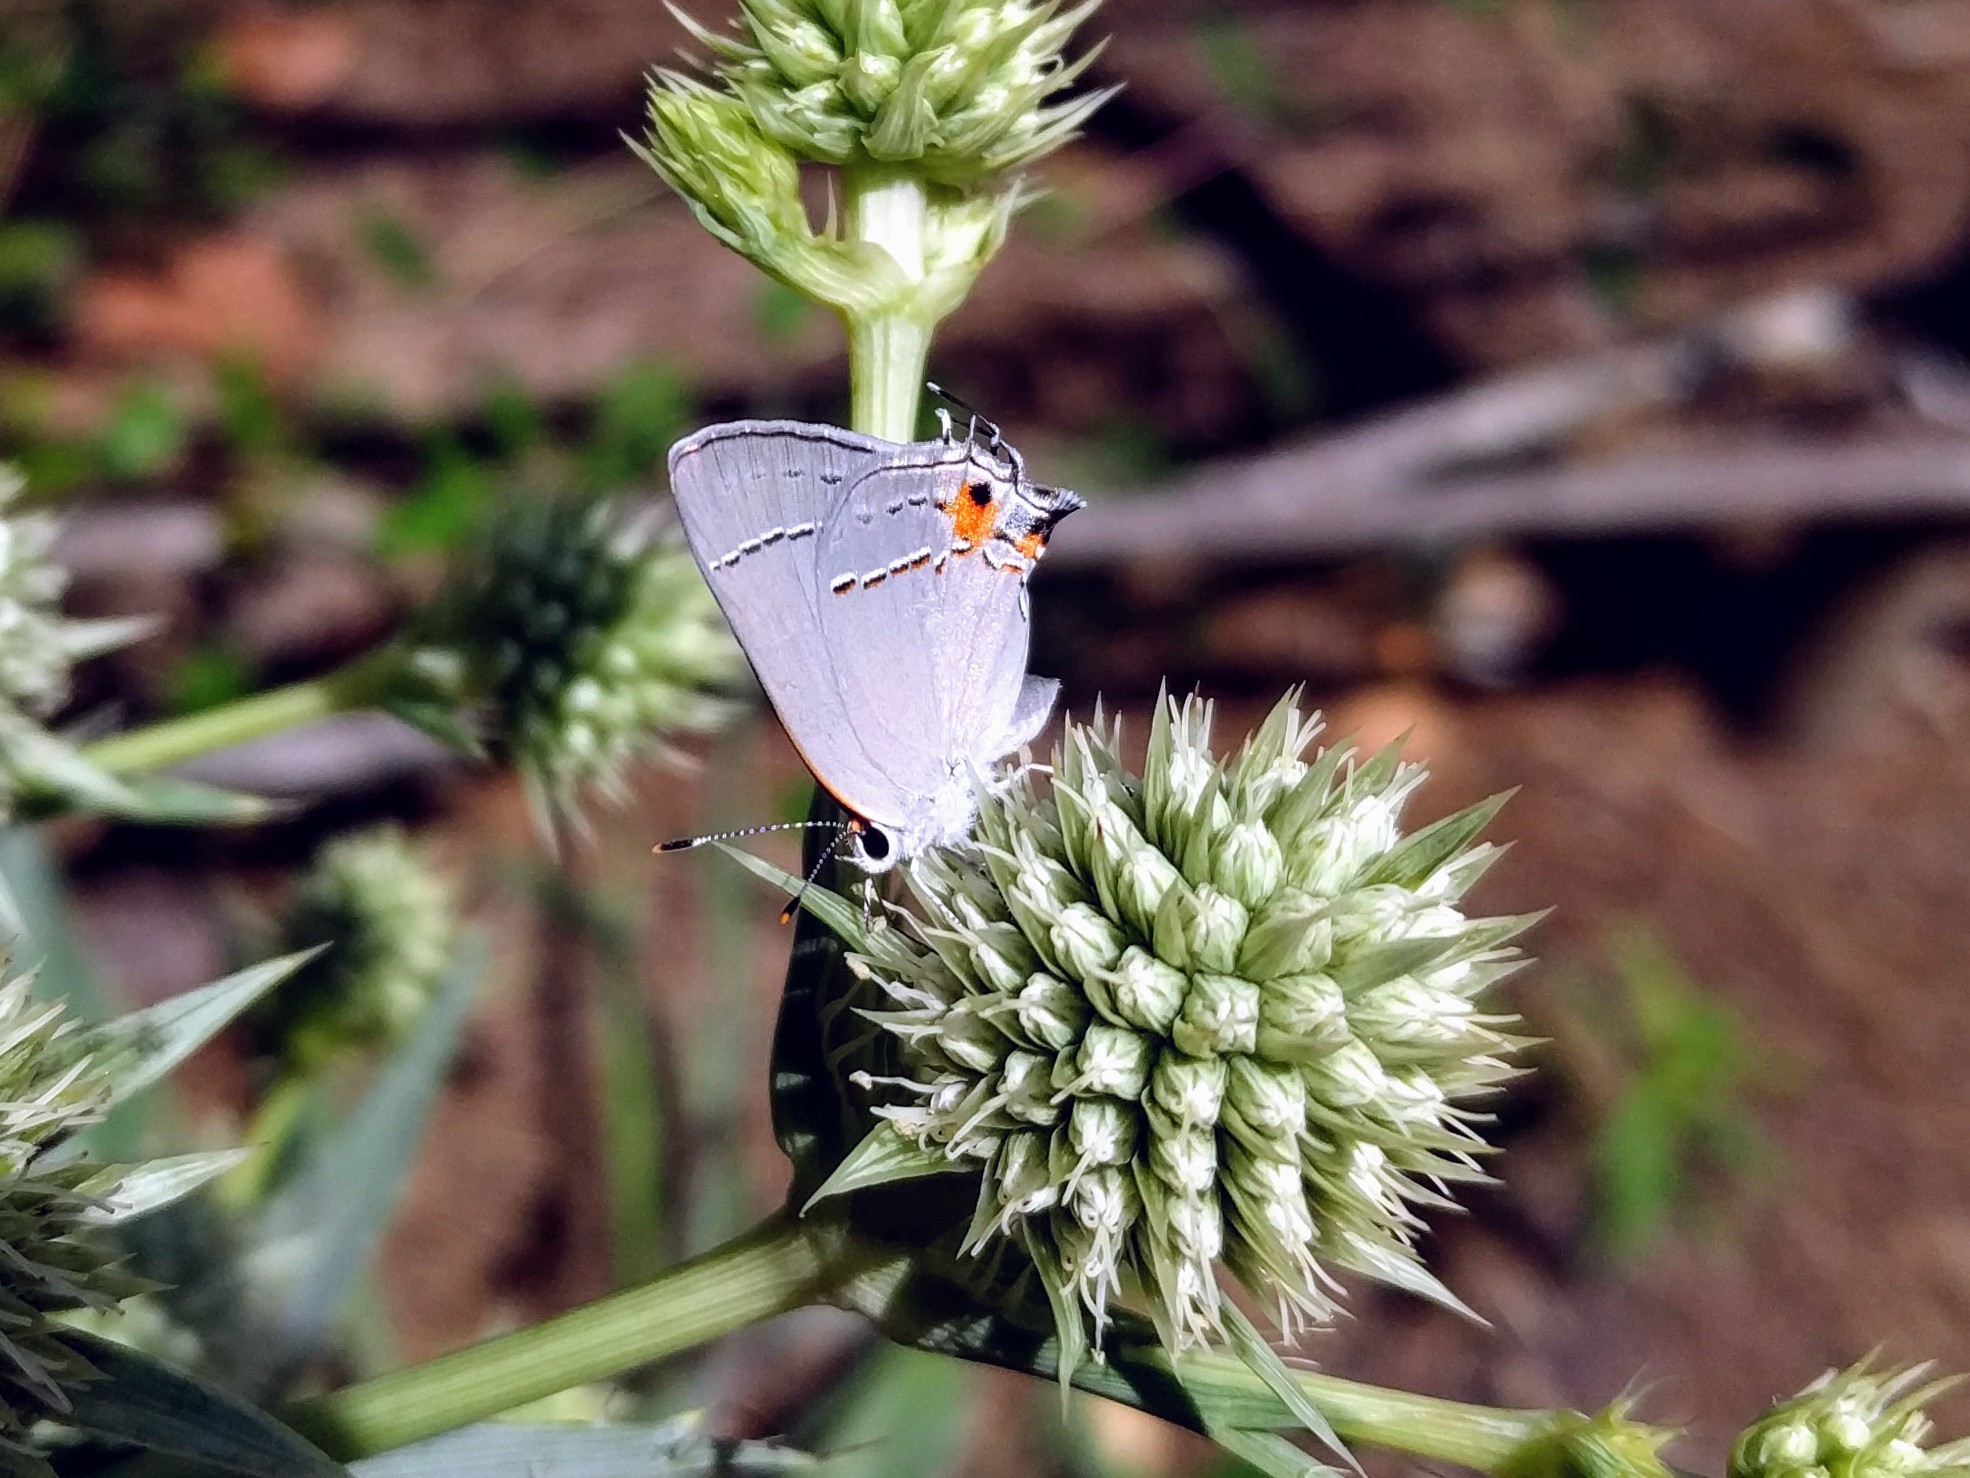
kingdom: Animalia
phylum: Arthropoda
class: Insecta
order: Lepidoptera
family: Lycaenidae
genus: Strymon
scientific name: Strymon melinus
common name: Gray hairstreak
